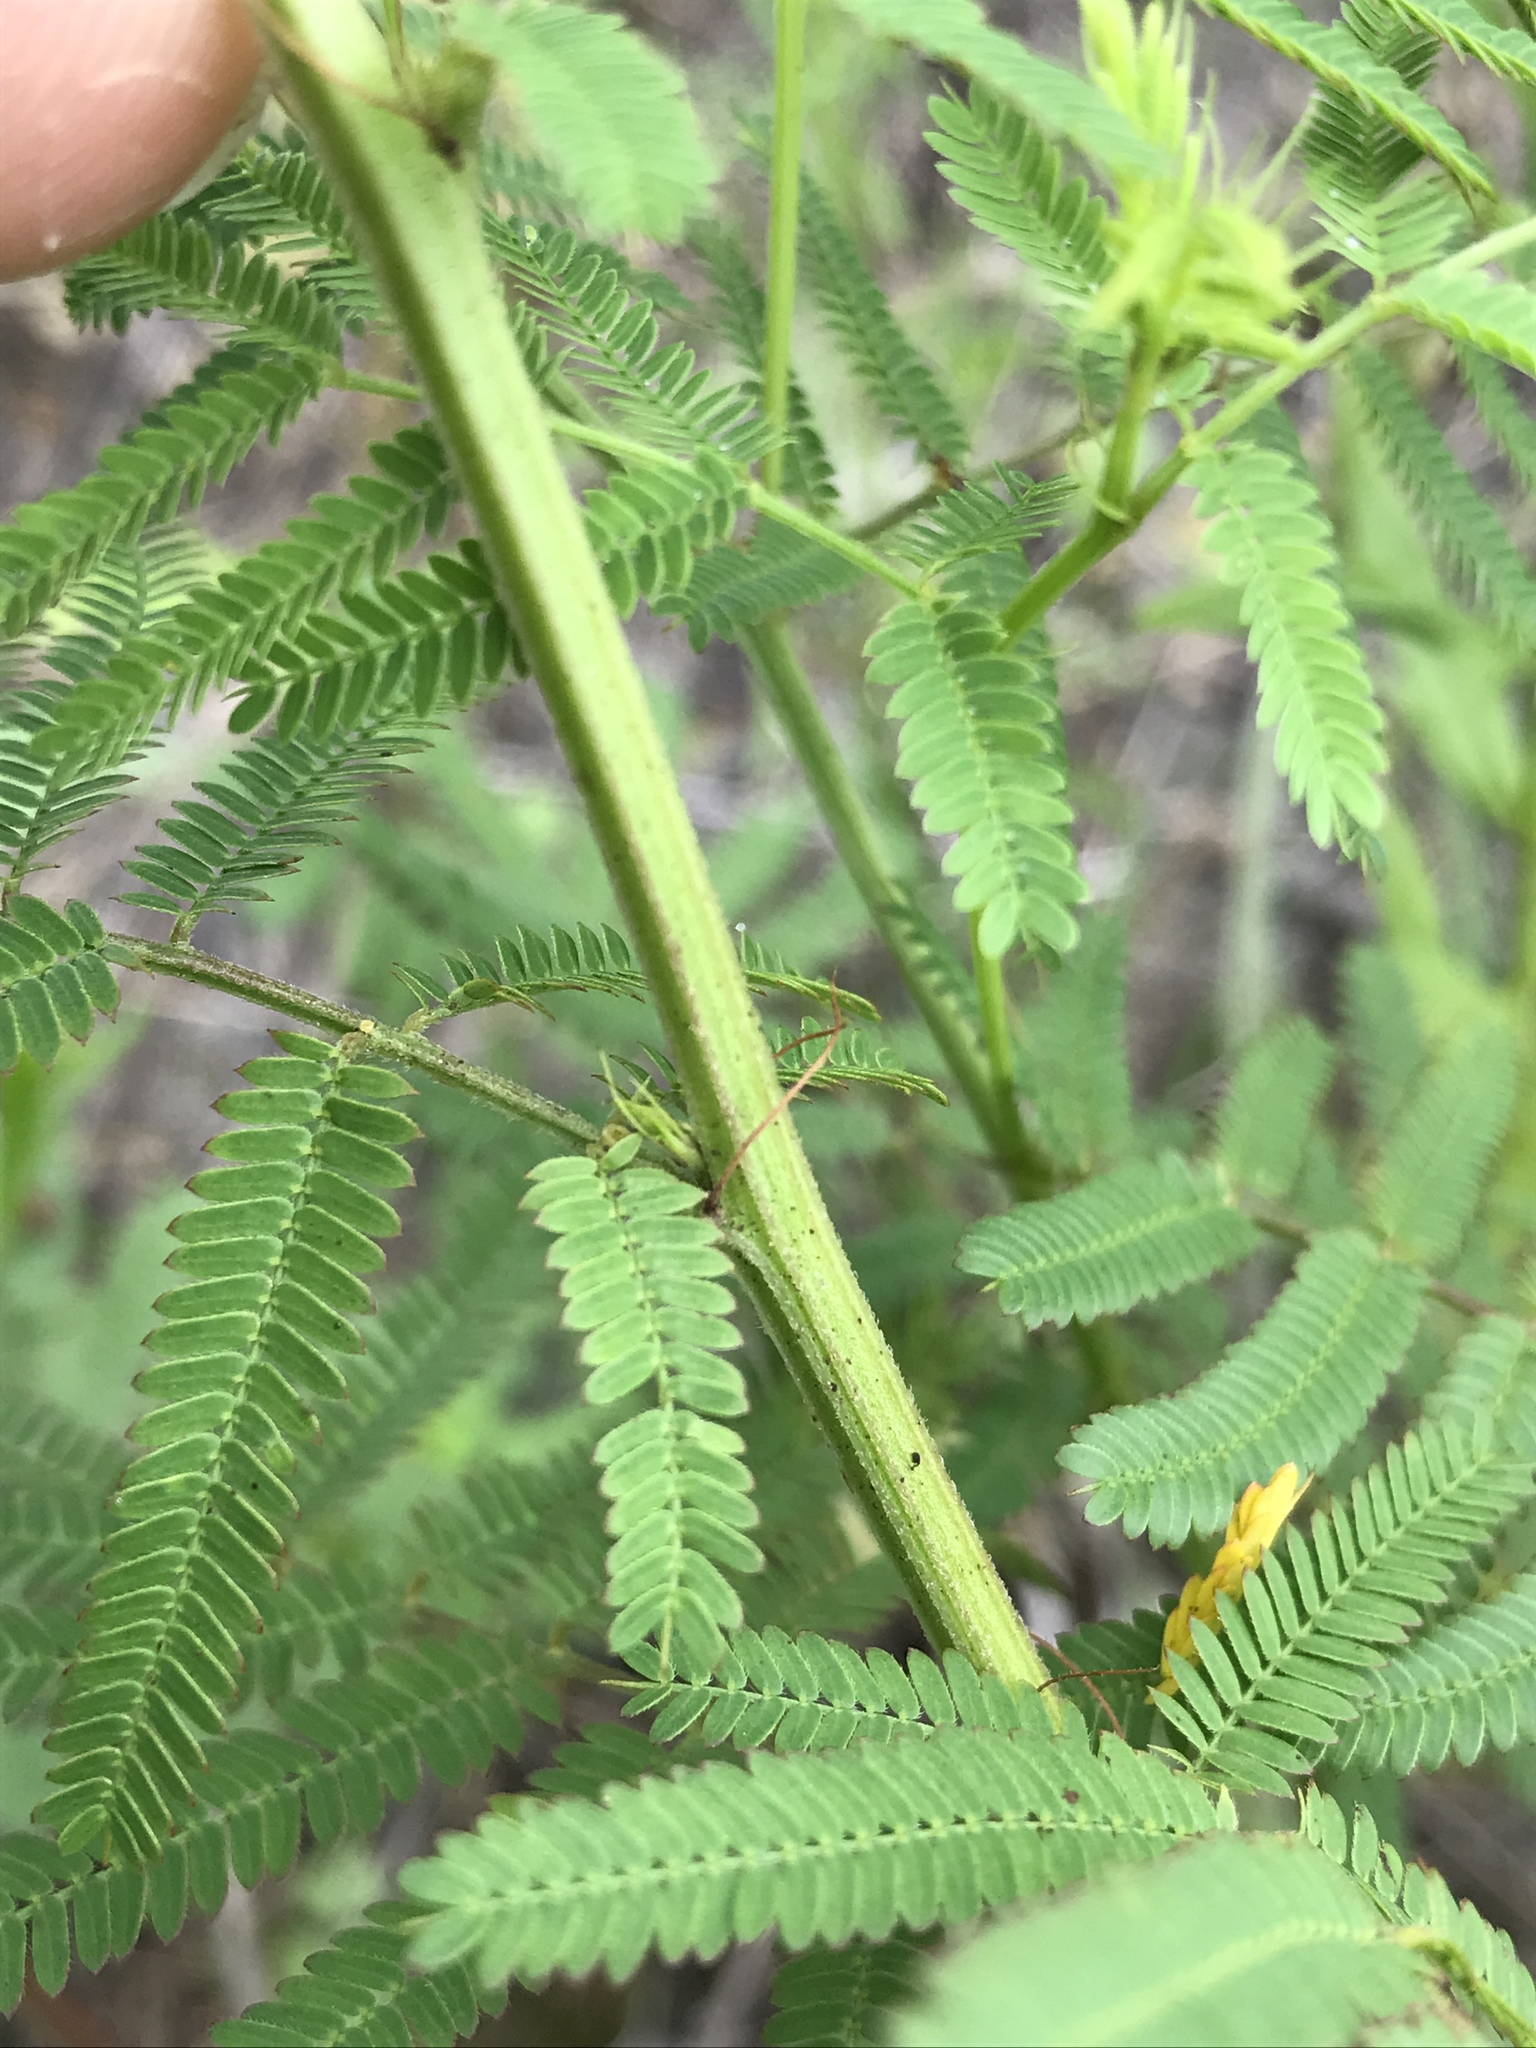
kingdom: Plantae
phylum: Tracheophyta
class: Magnoliopsida
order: Fabales
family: Fabaceae
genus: Desmanthus
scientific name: Desmanthus illinoensis
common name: Illinois bundle-flower
